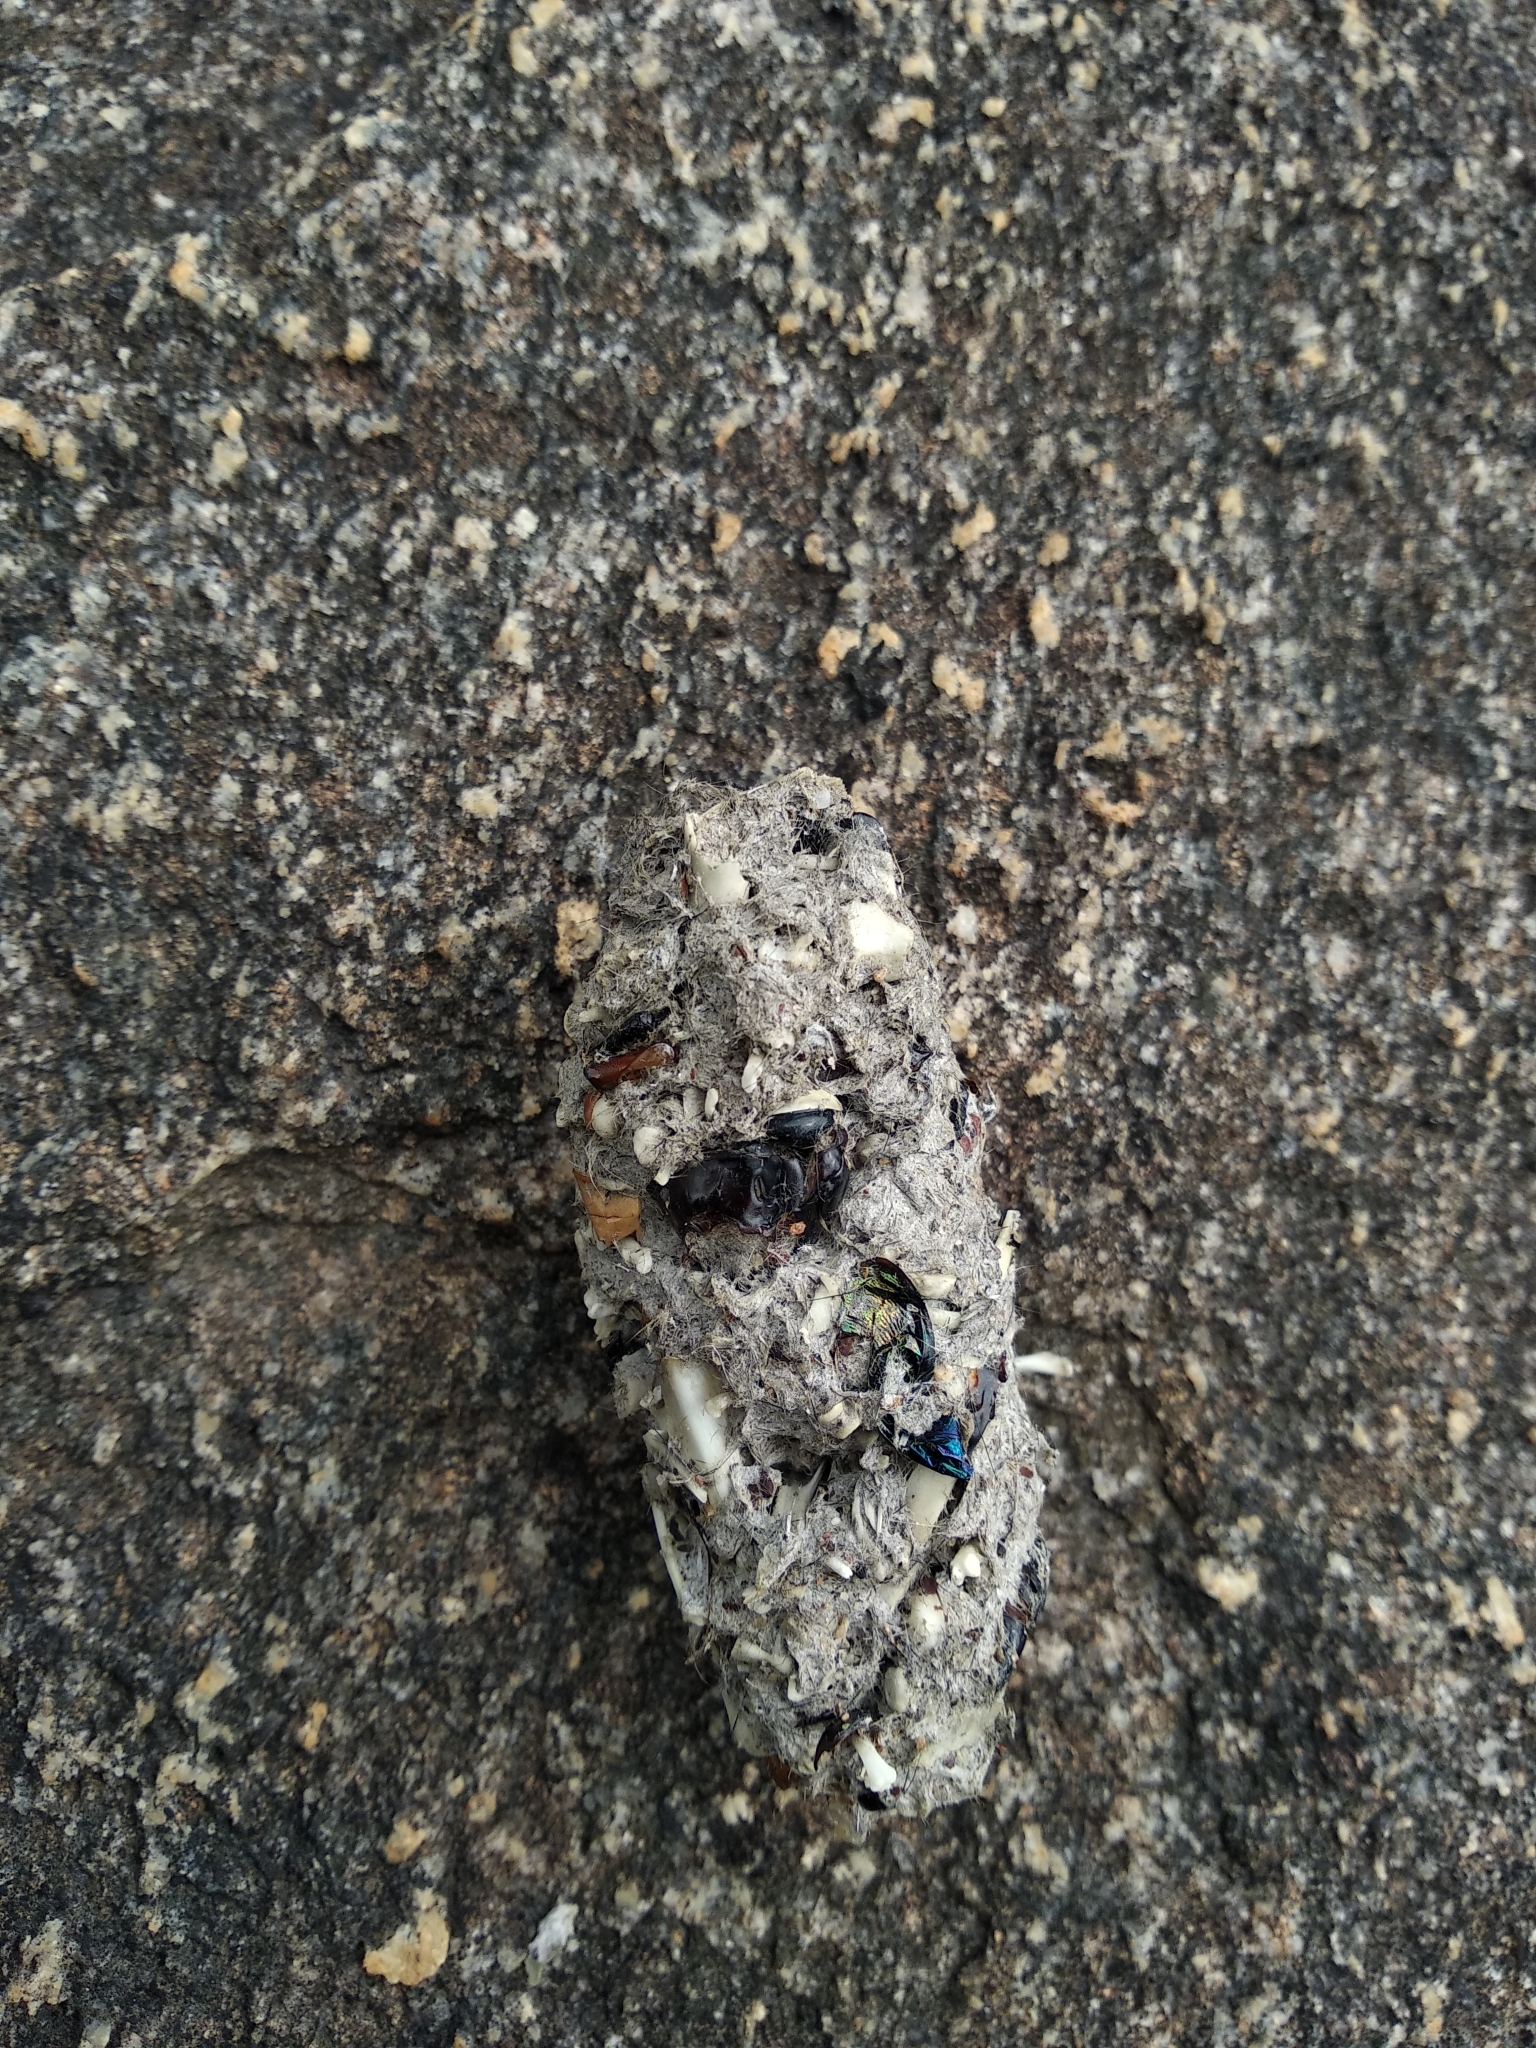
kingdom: Animalia
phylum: Chordata
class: Aves
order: Strigiformes
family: Strigidae
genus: Bubo
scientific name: Bubo bengalensis
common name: Indian eagle-owl
